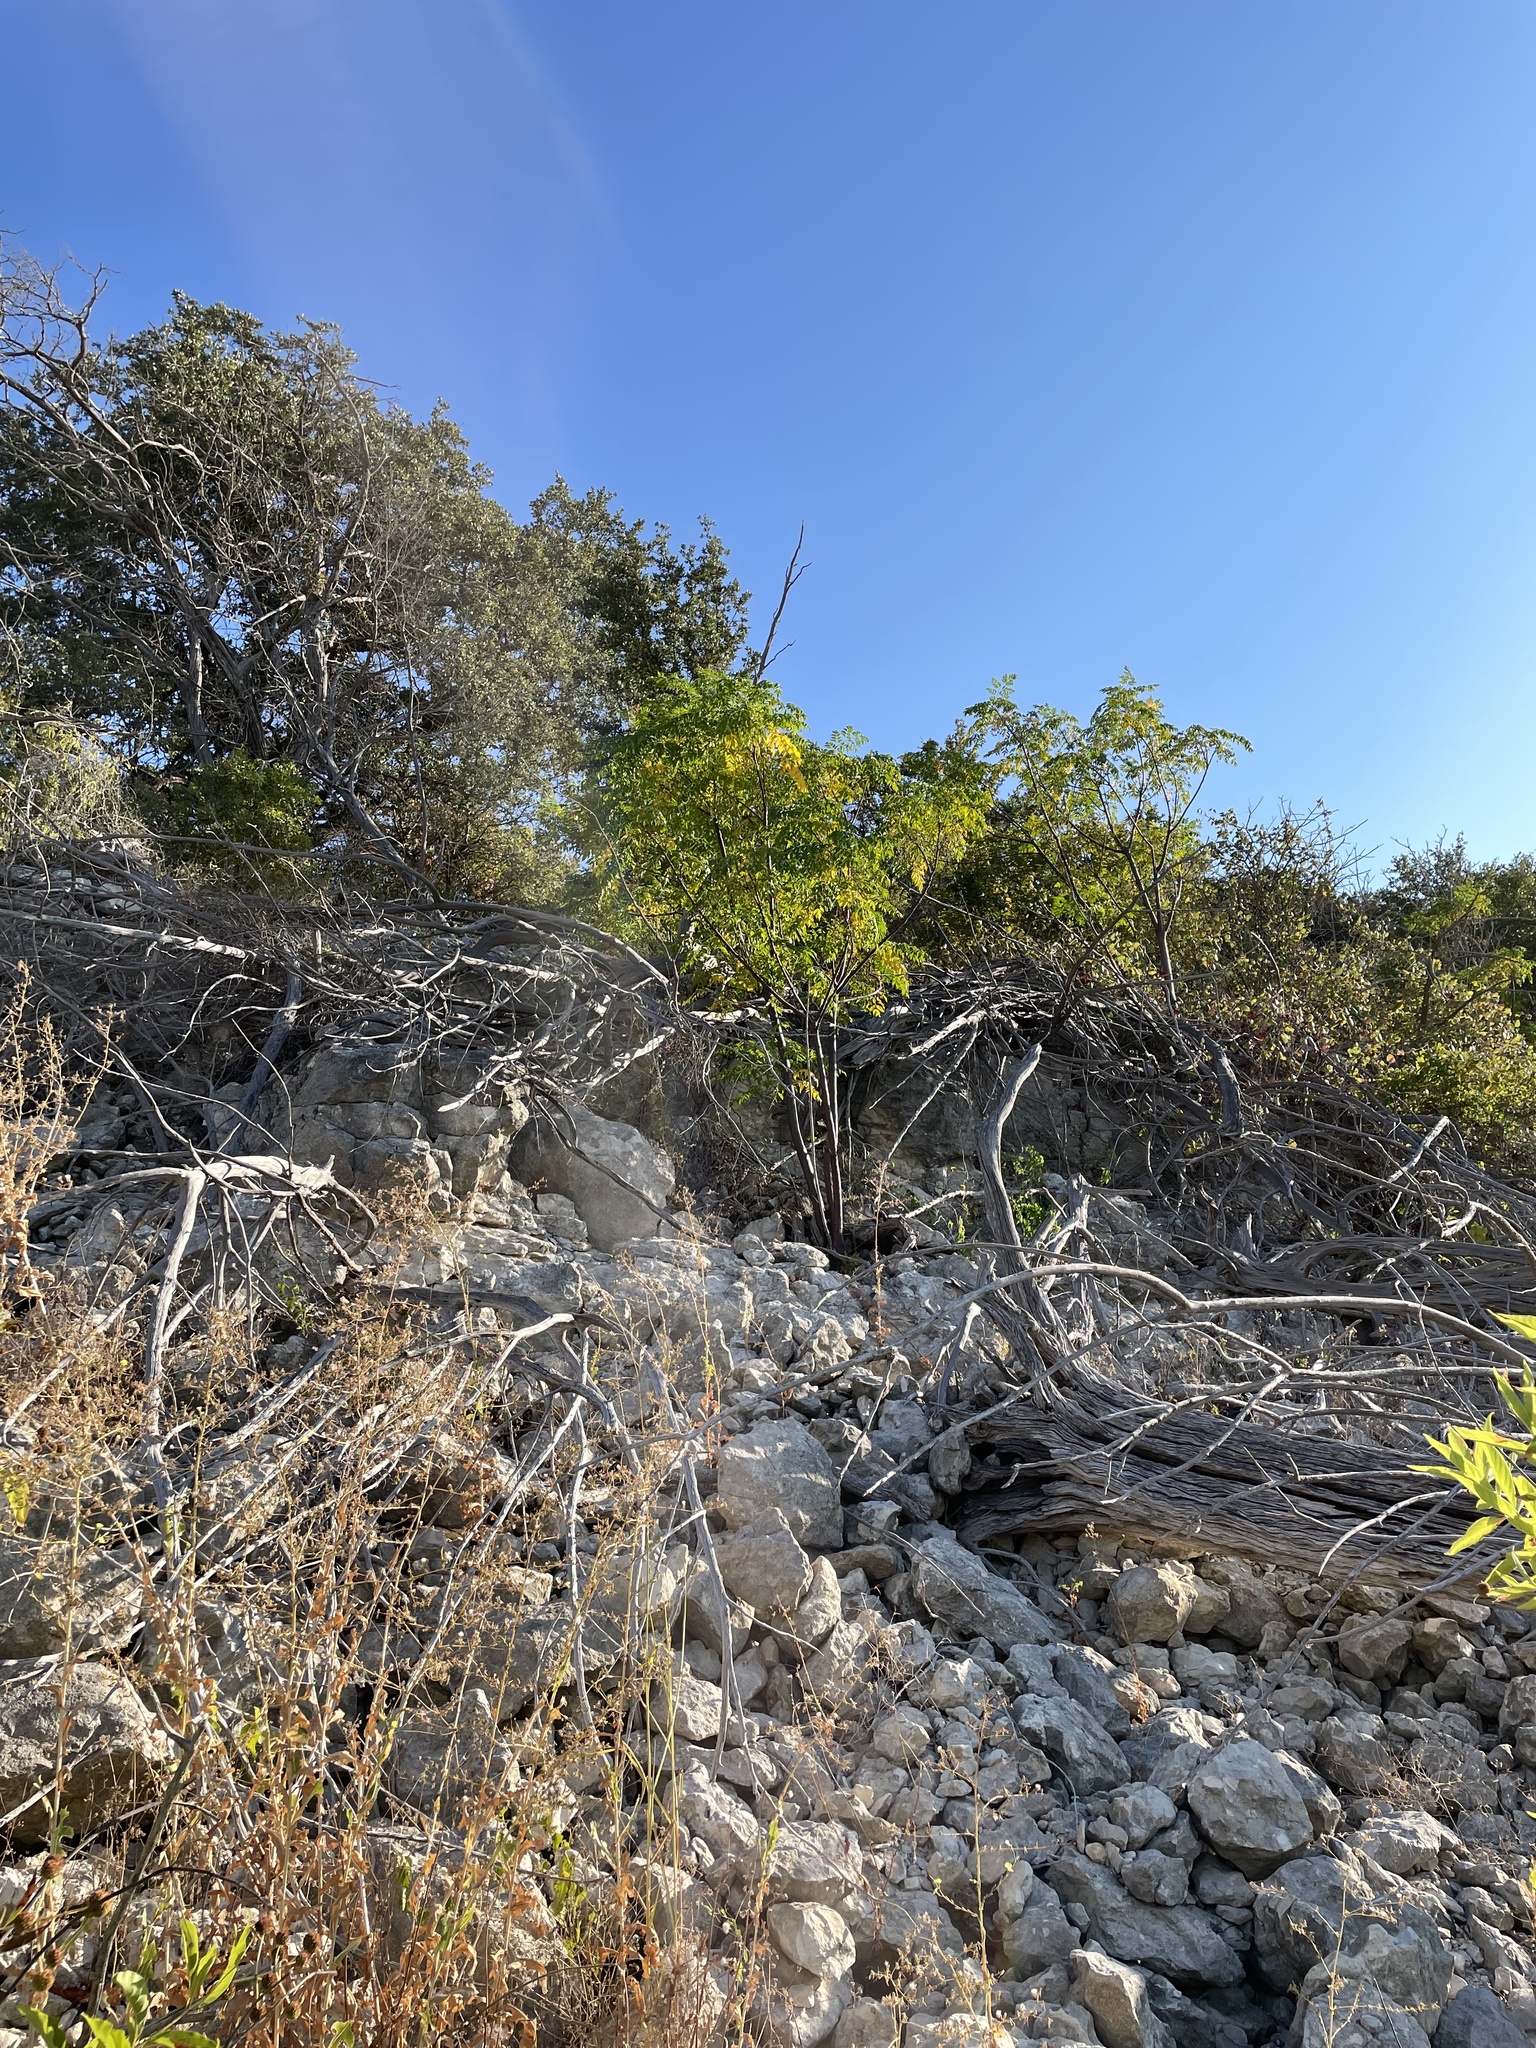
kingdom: Plantae
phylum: Tracheophyta
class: Magnoliopsida
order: Sapindales
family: Meliaceae
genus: Melia
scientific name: Melia azedarach
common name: Chinaberrytree
